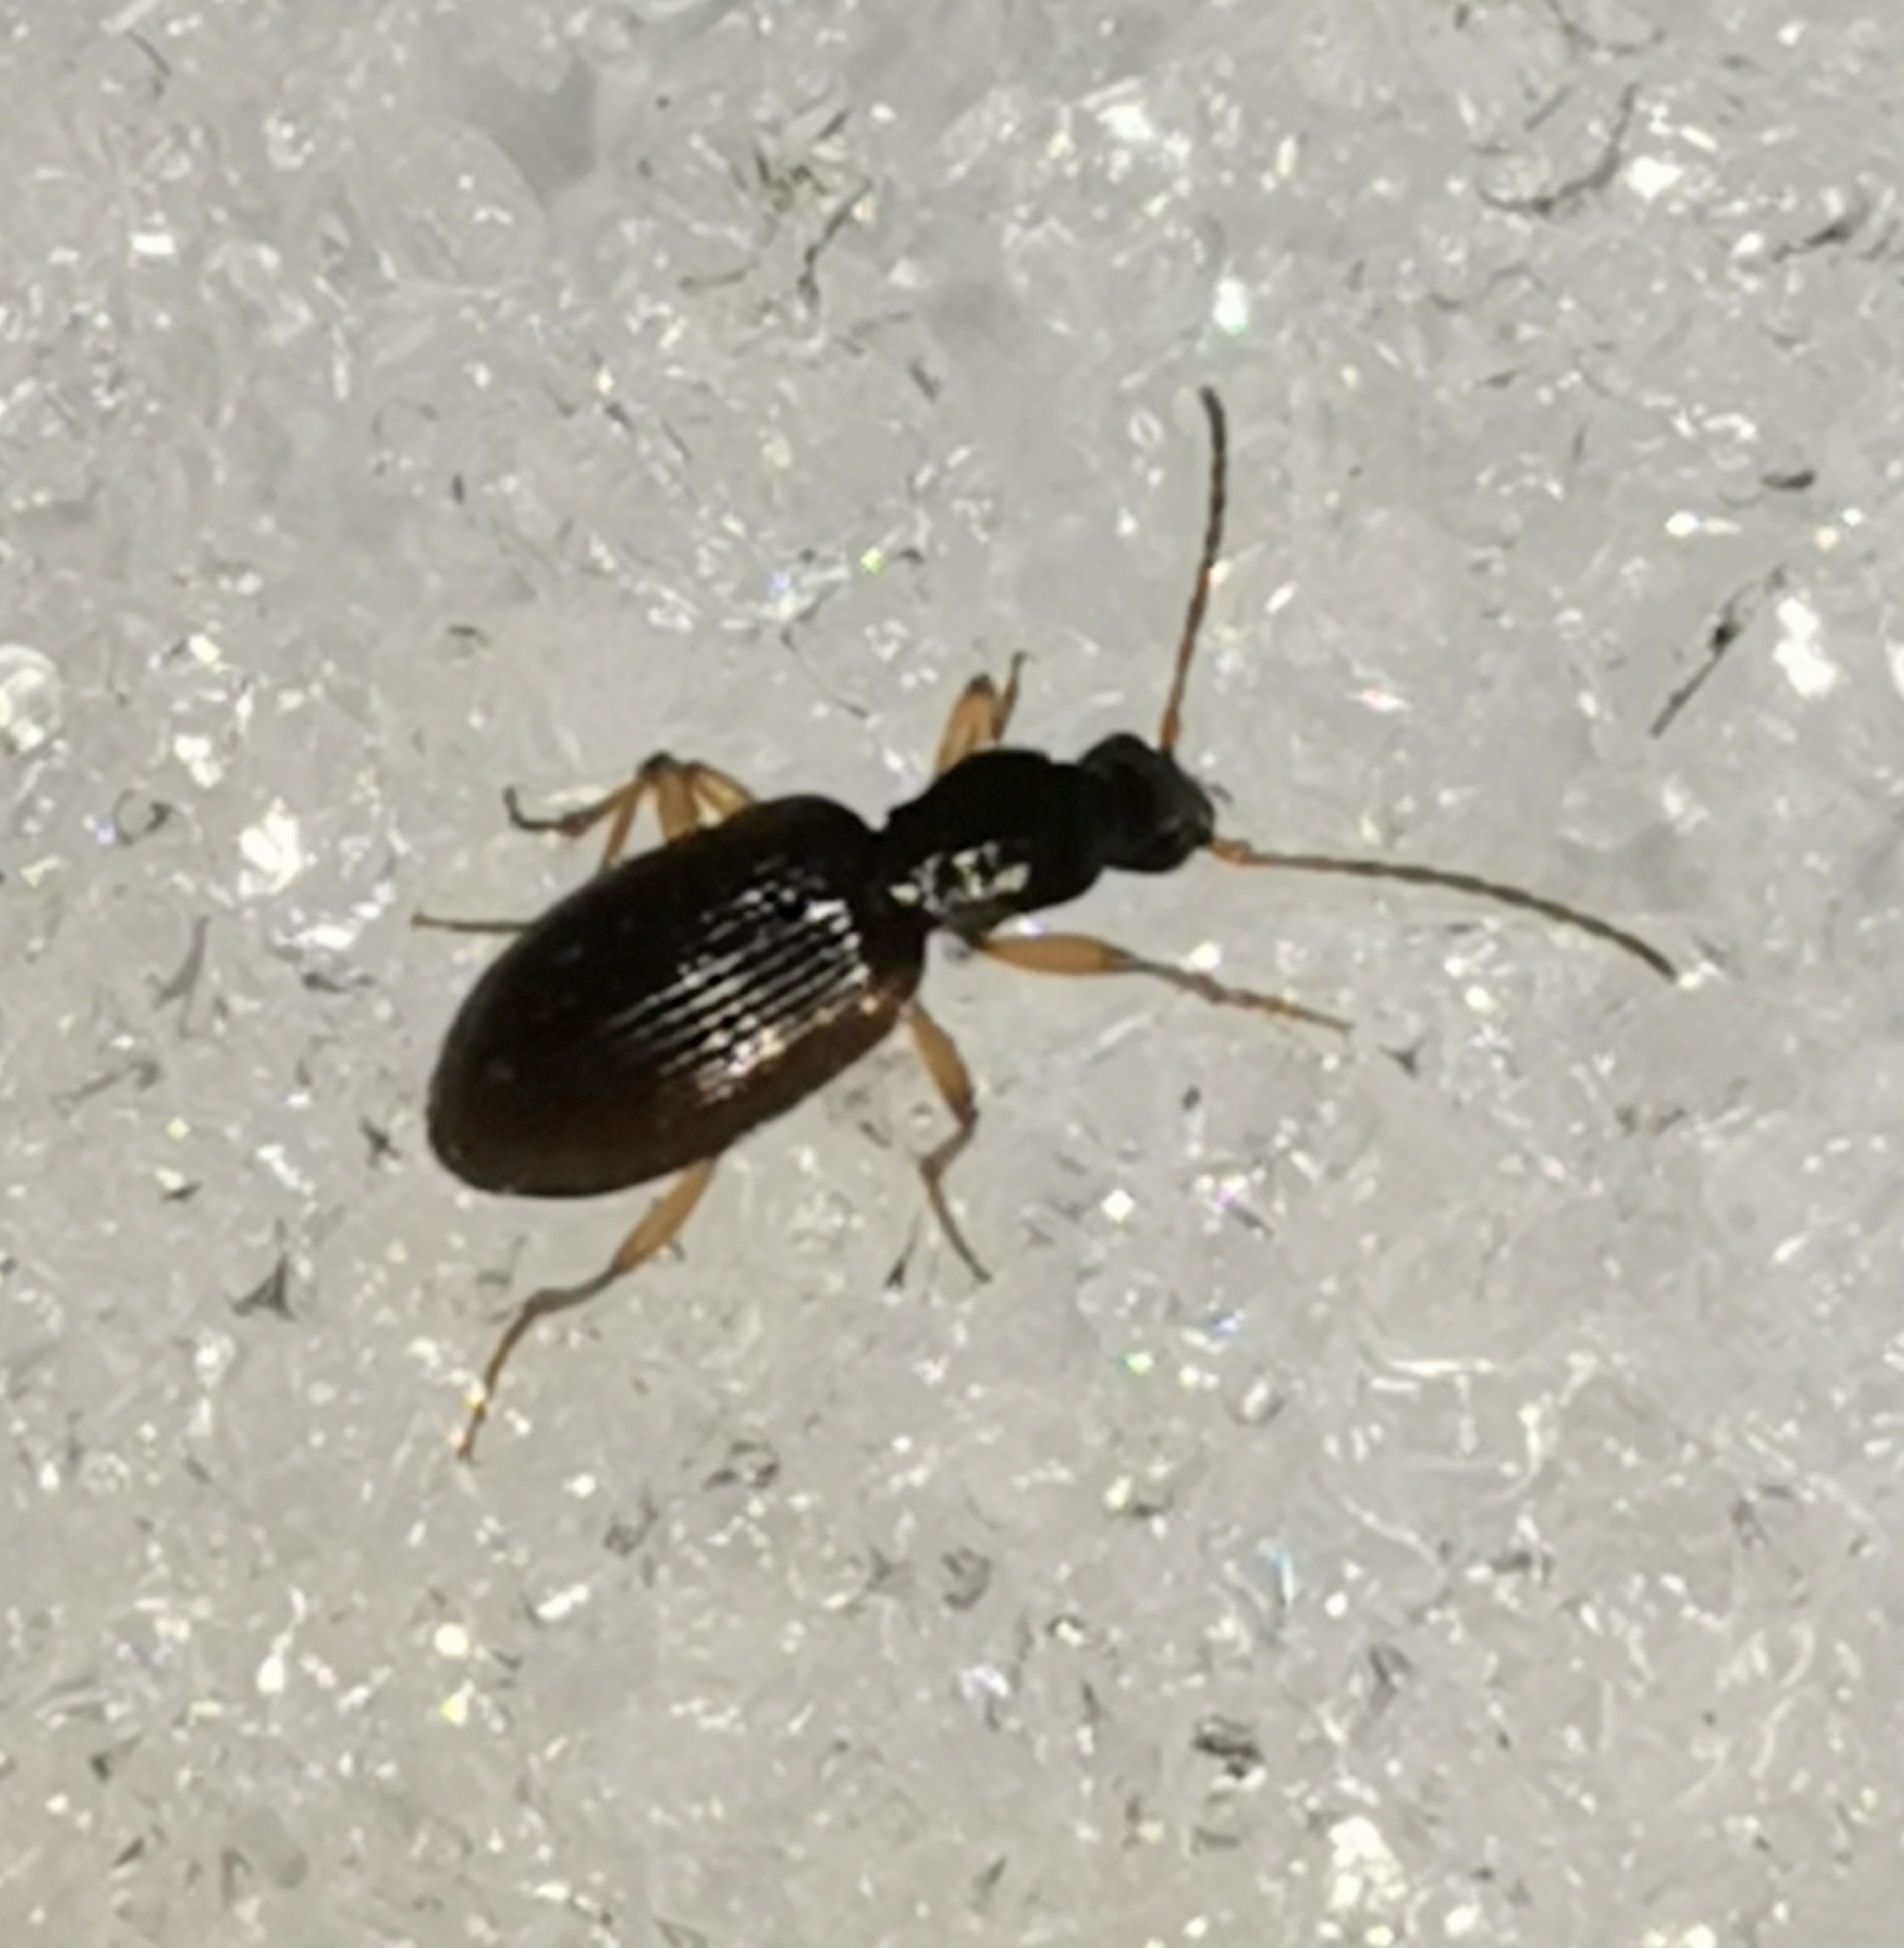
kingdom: Animalia
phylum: Arthropoda
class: Insecta
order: Coleoptera
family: Carabidae
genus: Oxypselaphus
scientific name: Oxypselaphus obscurus
